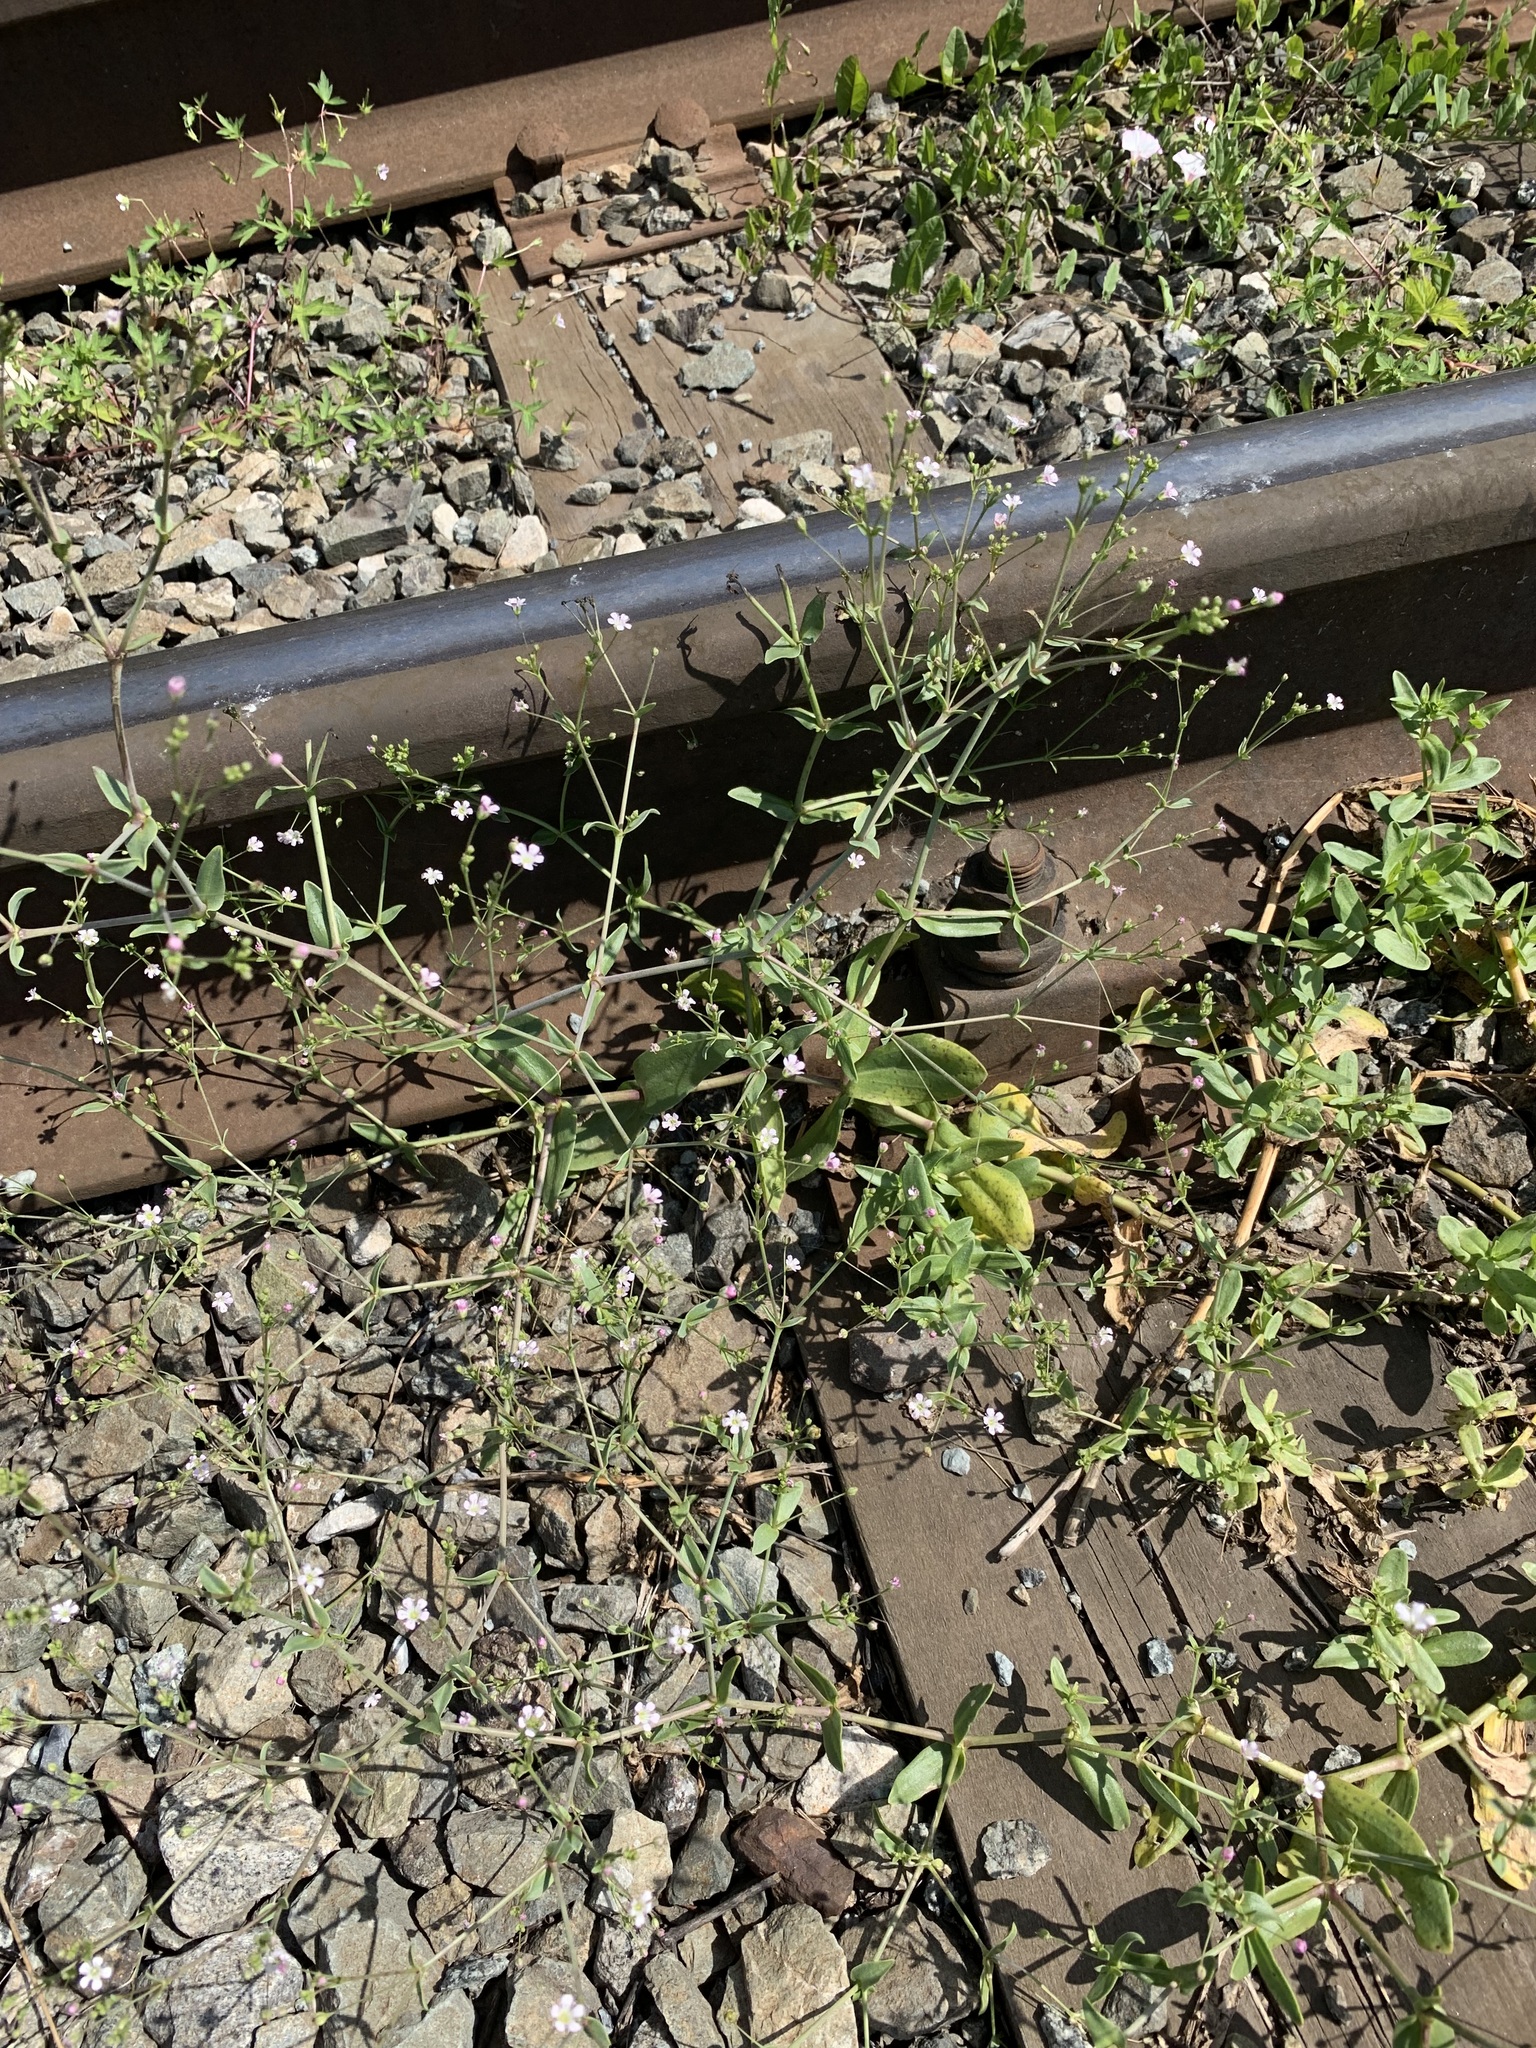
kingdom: Plantae
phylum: Tracheophyta
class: Magnoliopsida
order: Caryophyllales
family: Caryophyllaceae
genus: Gypsophila
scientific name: Gypsophila perfoliata
